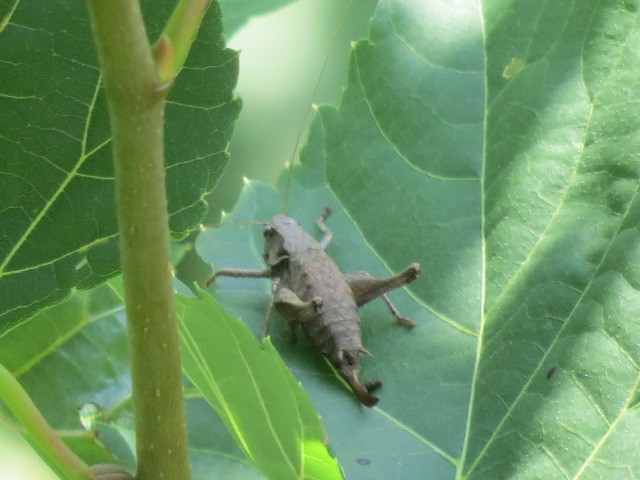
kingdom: Animalia
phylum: Arthropoda
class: Insecta
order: Orthoptera
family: Tettigoniidae
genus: Pholidoptera
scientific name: Pholidoptera griseoaptera
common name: Dark bush-cricket
